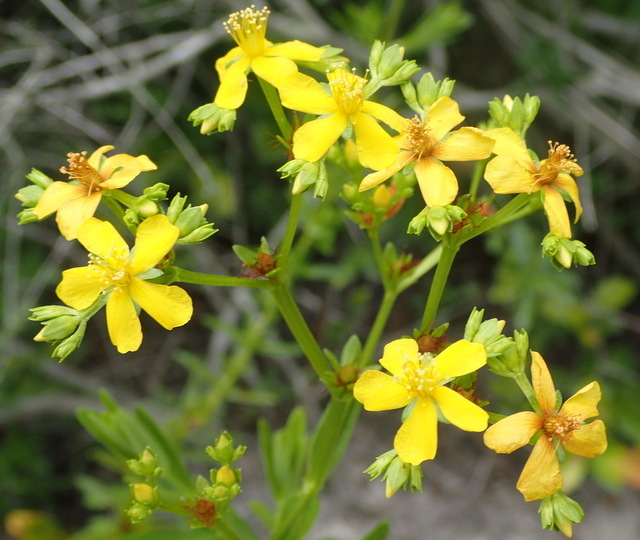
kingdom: Plantae
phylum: Tracheophyta
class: Magnoliopsida
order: Malpighiales
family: Hypericaceae
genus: Hypericum
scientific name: Hypericum cistifolium
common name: Round-pod st. john's-wort
